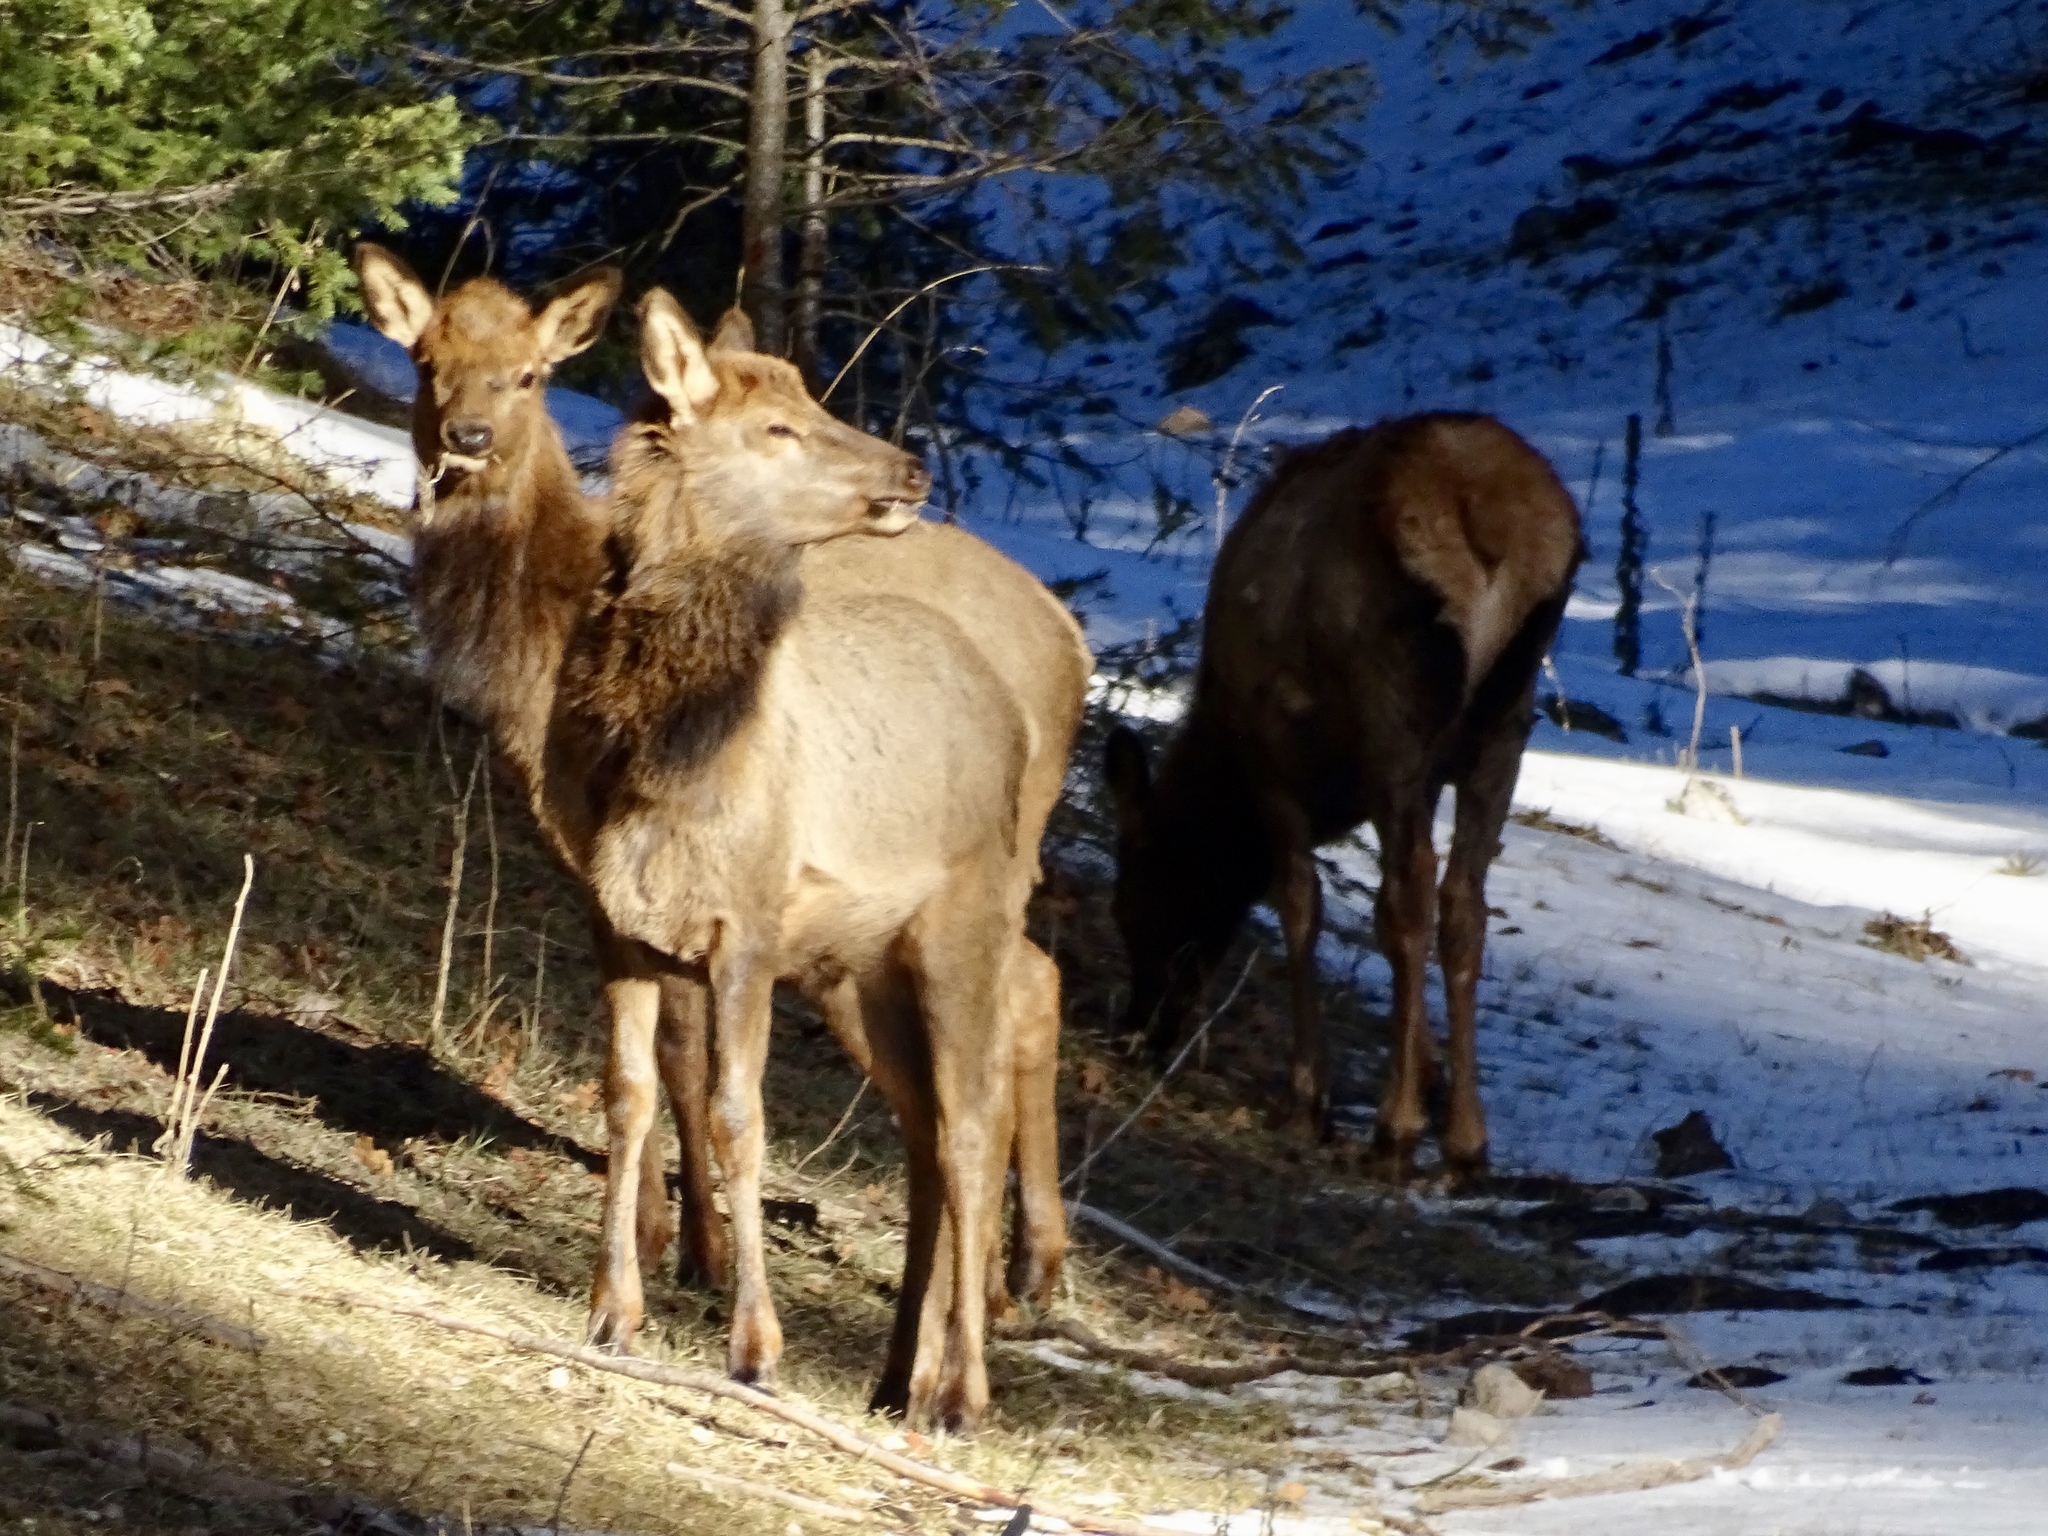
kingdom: Animalia
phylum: Chordata
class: Mammalia
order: Artiodactyla
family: Cervidae
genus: Cervus
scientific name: Cervus elaphus
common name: Red deer
